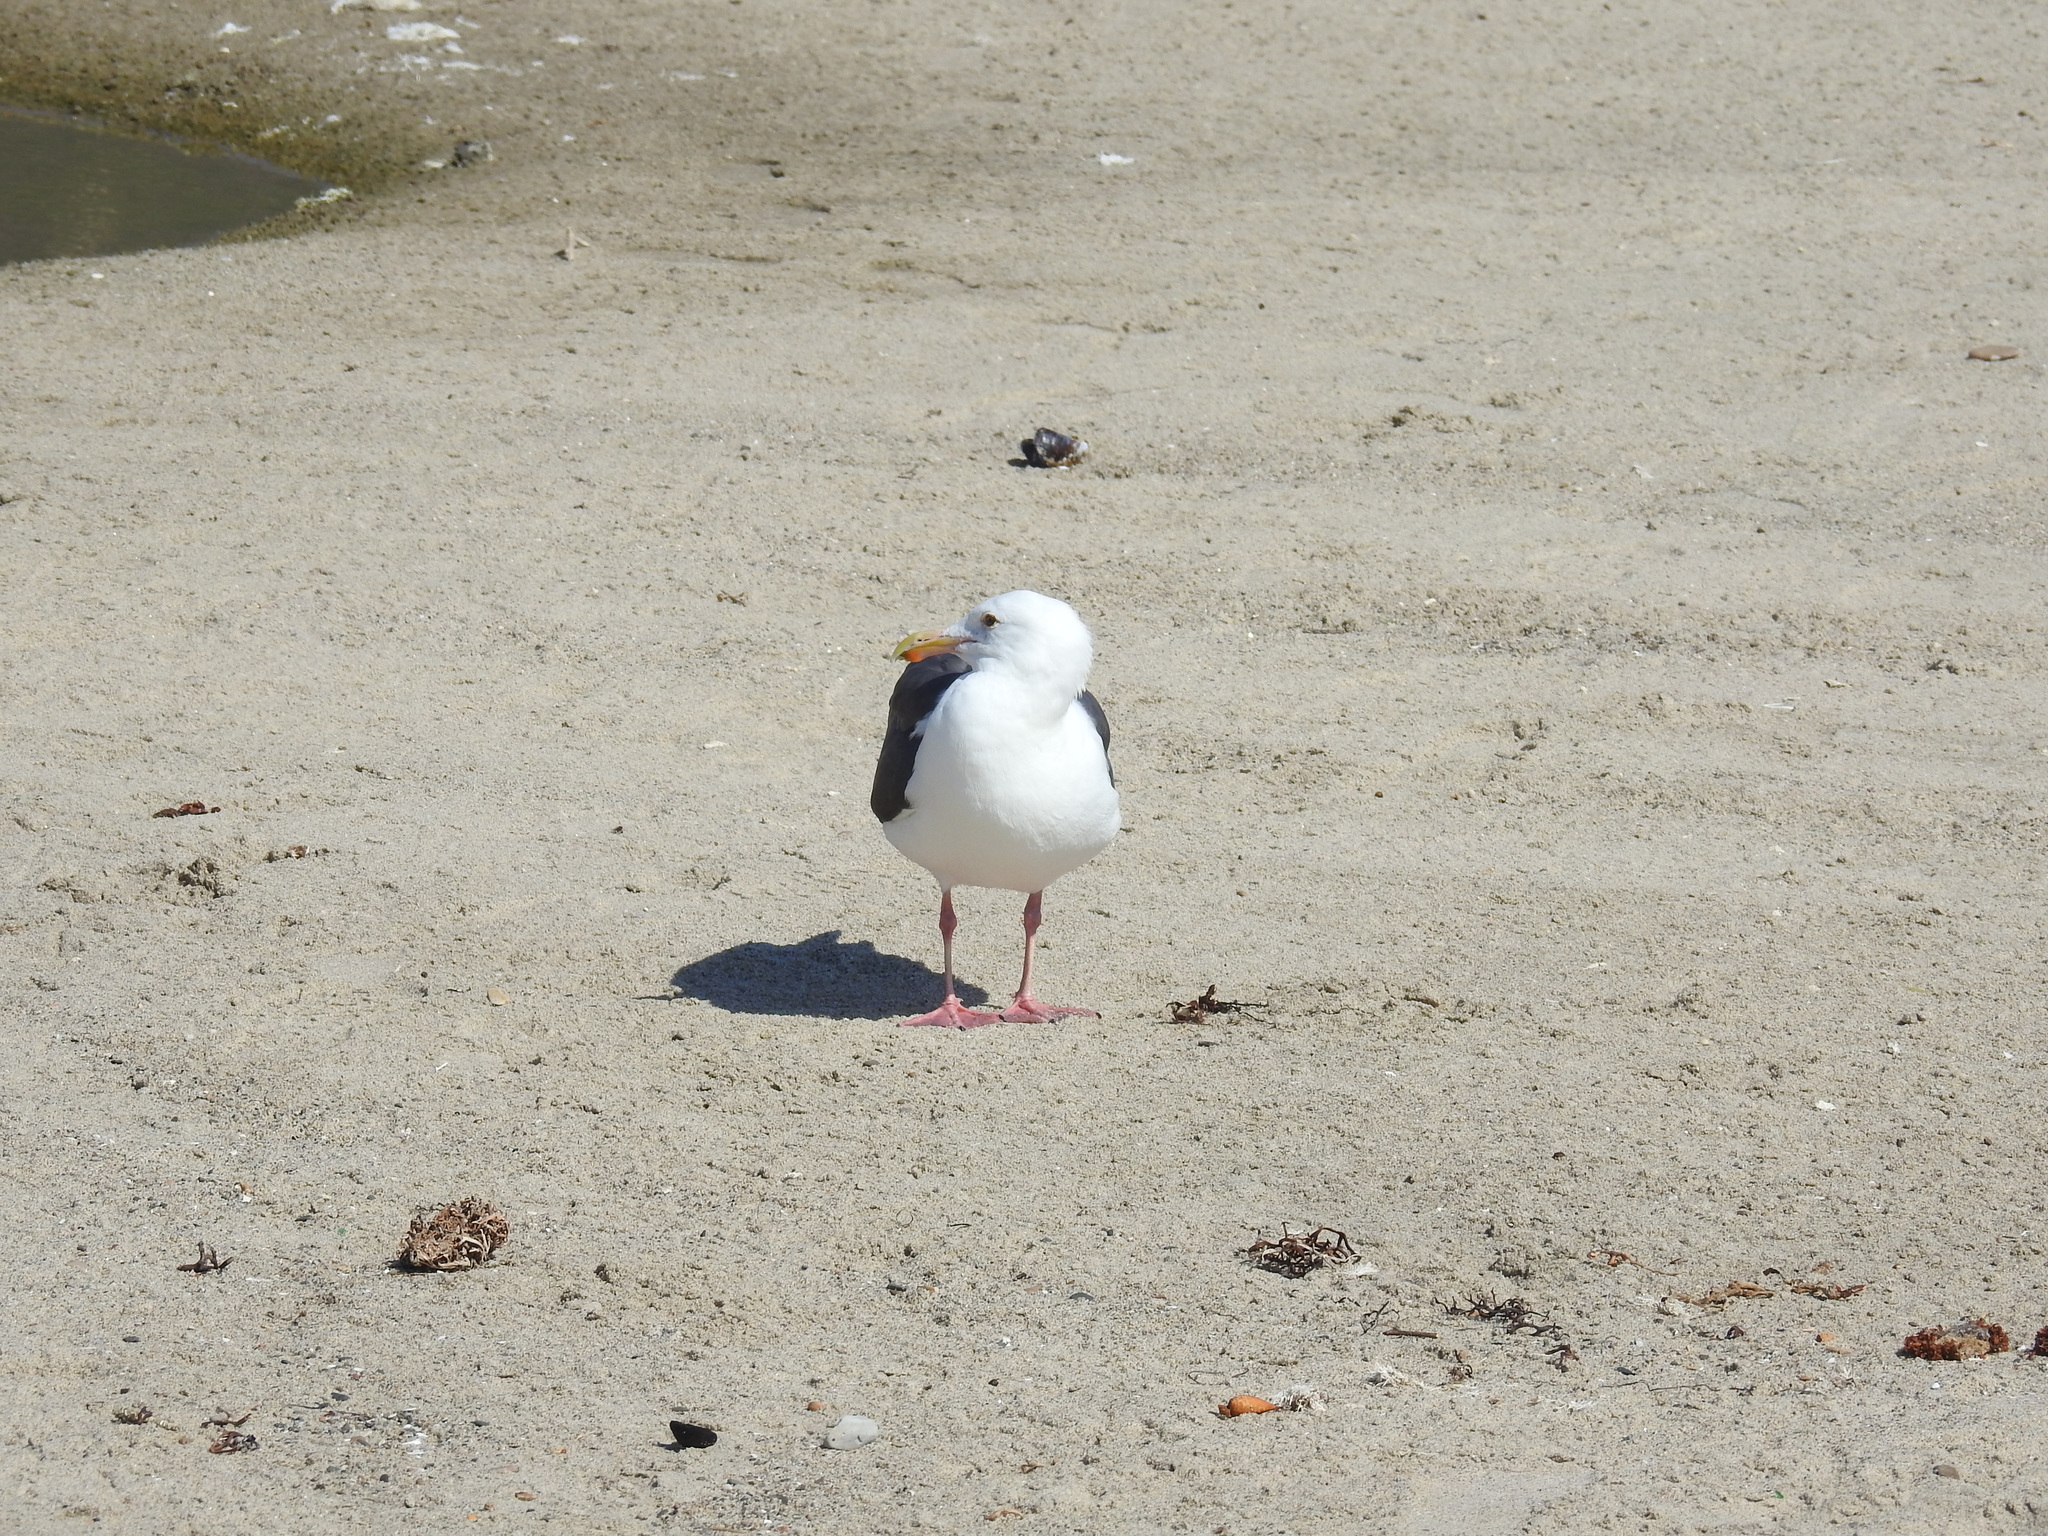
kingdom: Animalia
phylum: Chordata
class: Aves
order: Charadriiformes
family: Laridae
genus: Larus
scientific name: Larus occidentalis
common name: Western gull
